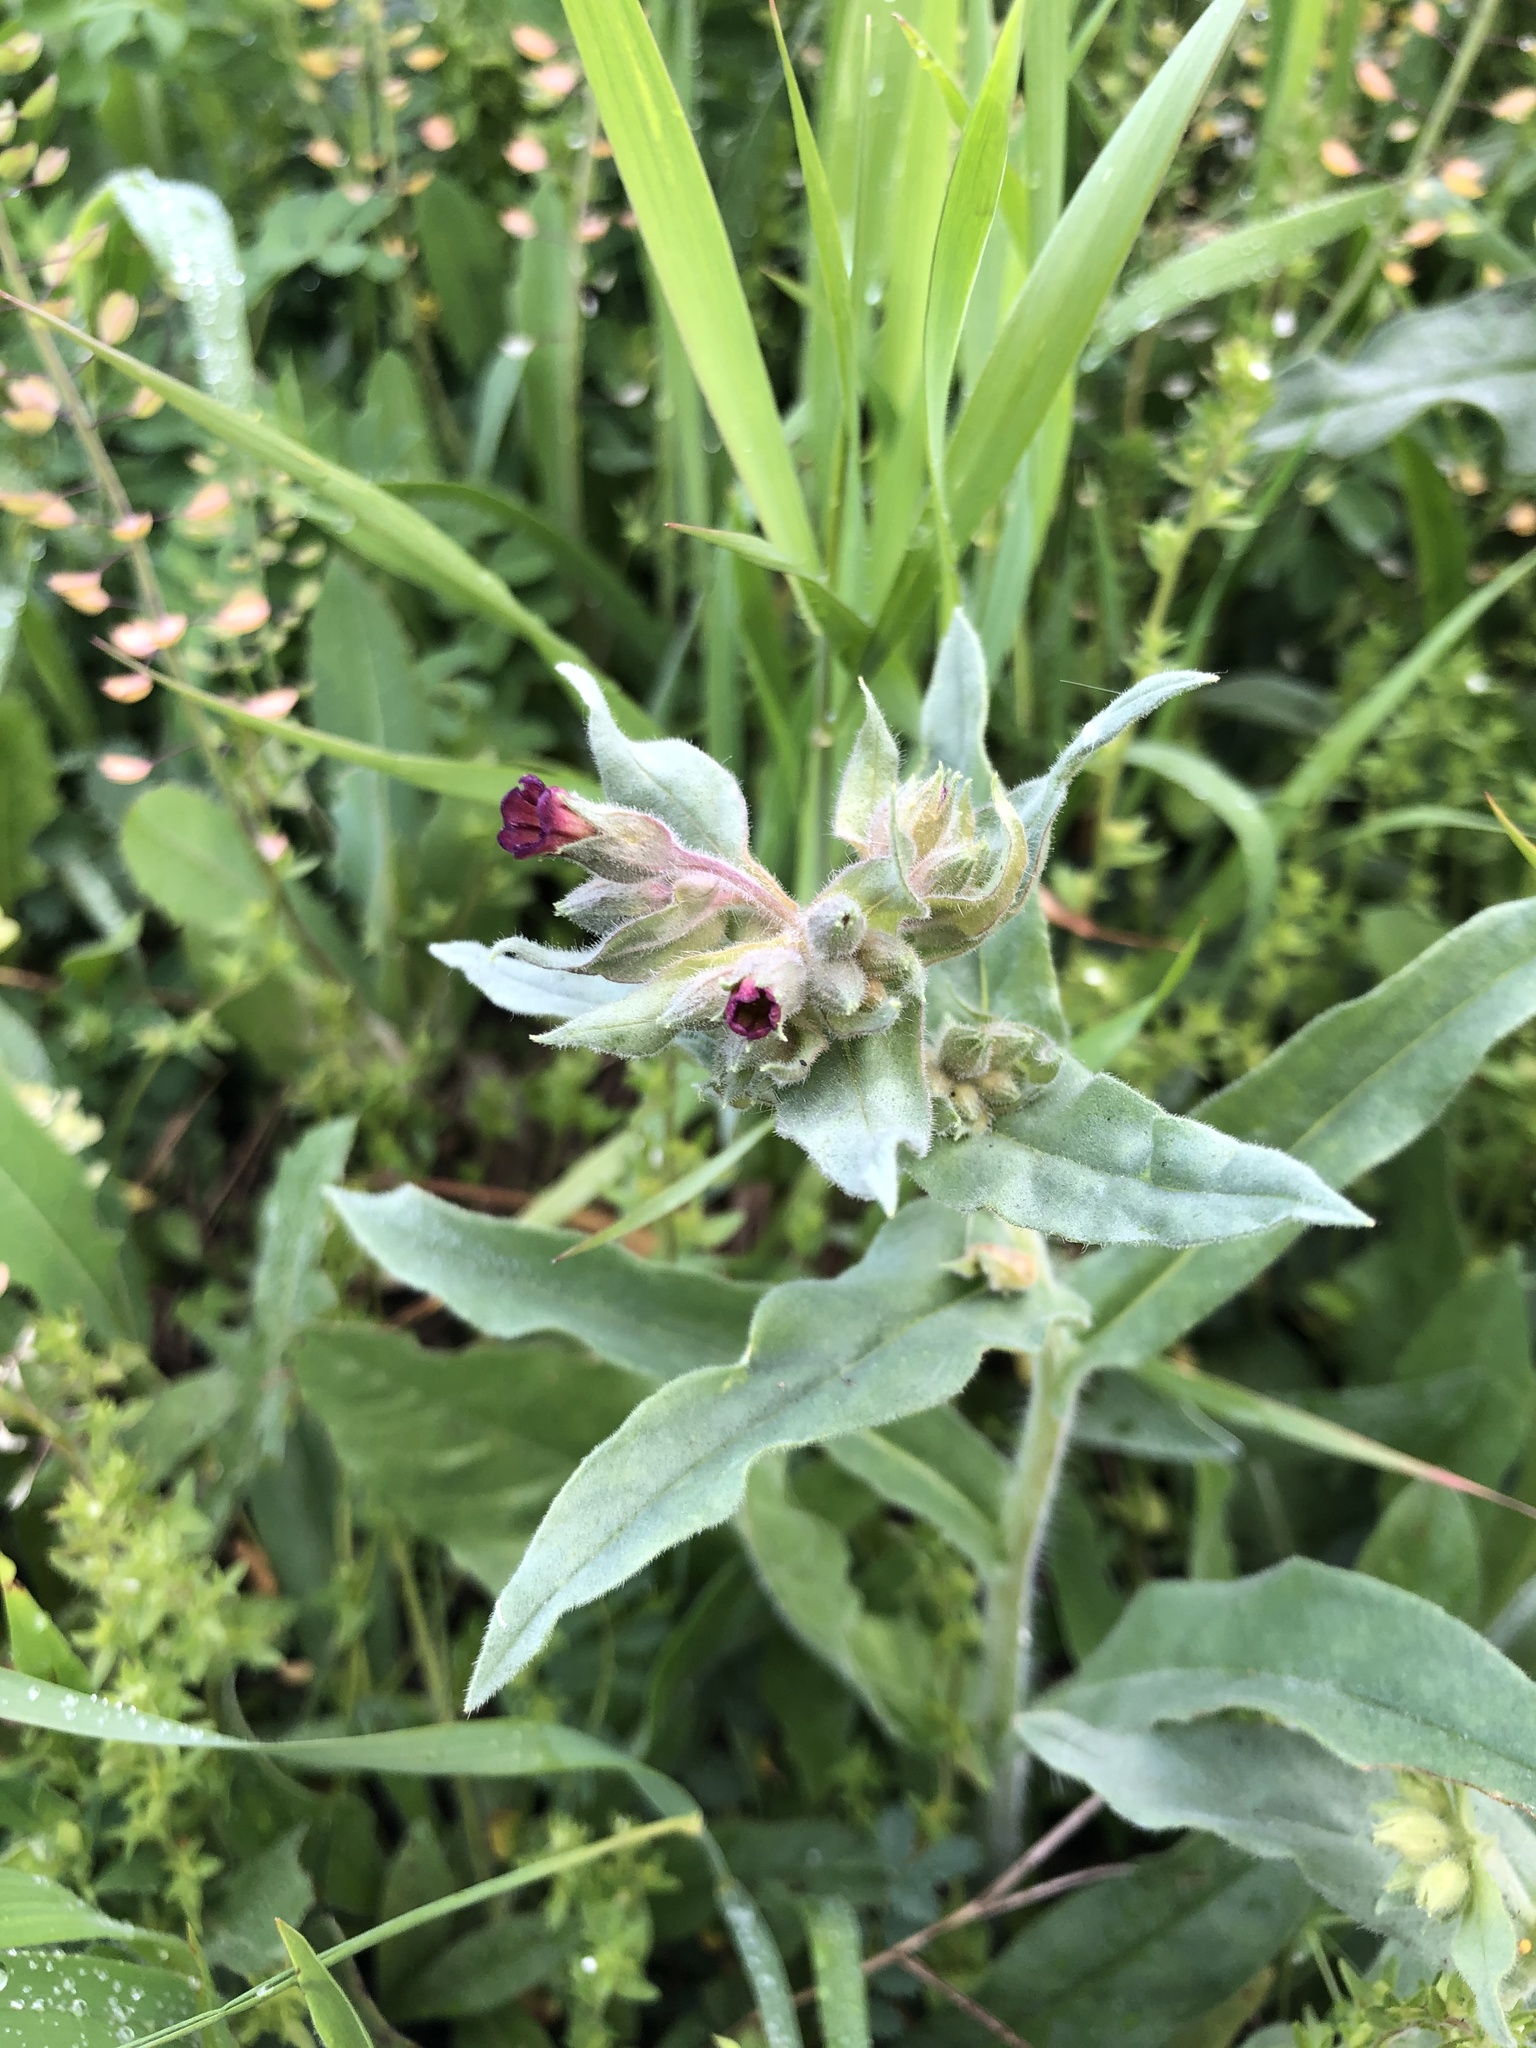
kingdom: Plantae
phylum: Tracheophyta
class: Magnoliopsida
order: Boraginales
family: Boraginaceae
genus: Nonea
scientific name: Nonea pulla
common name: Brown nonea
